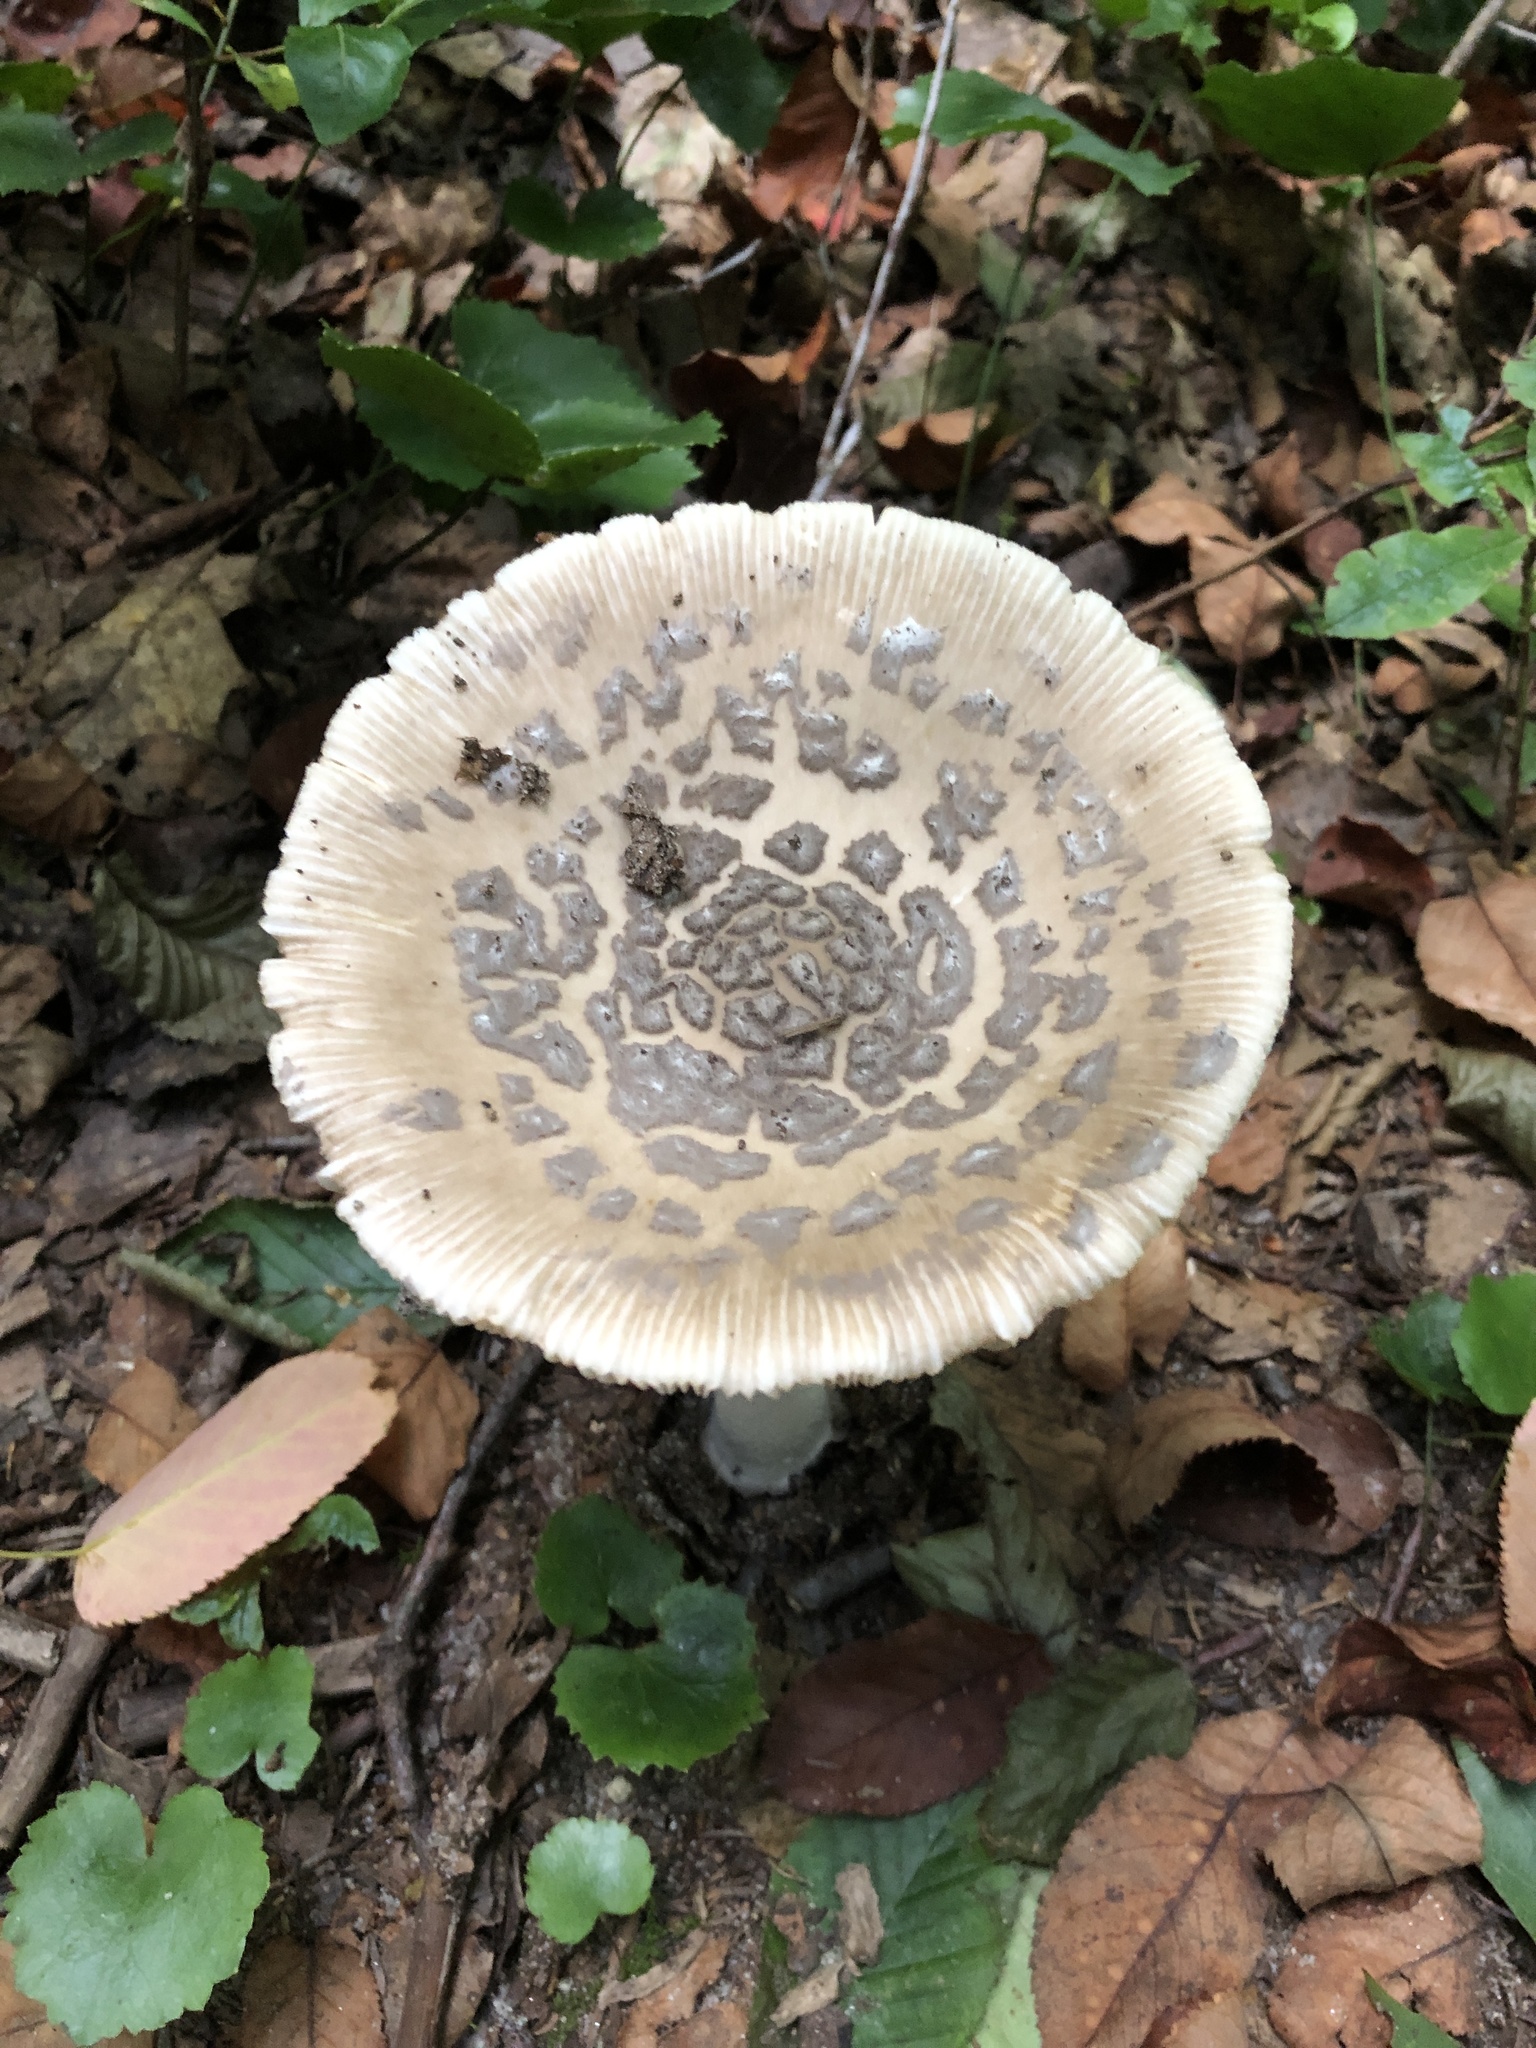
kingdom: Fungi
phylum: Basidiomycota
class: Agaricomycetes
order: Agaricales
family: Amanitaceae
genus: Amanita
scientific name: Amanita rhacopus
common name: Shaggy legged ringless amanita
